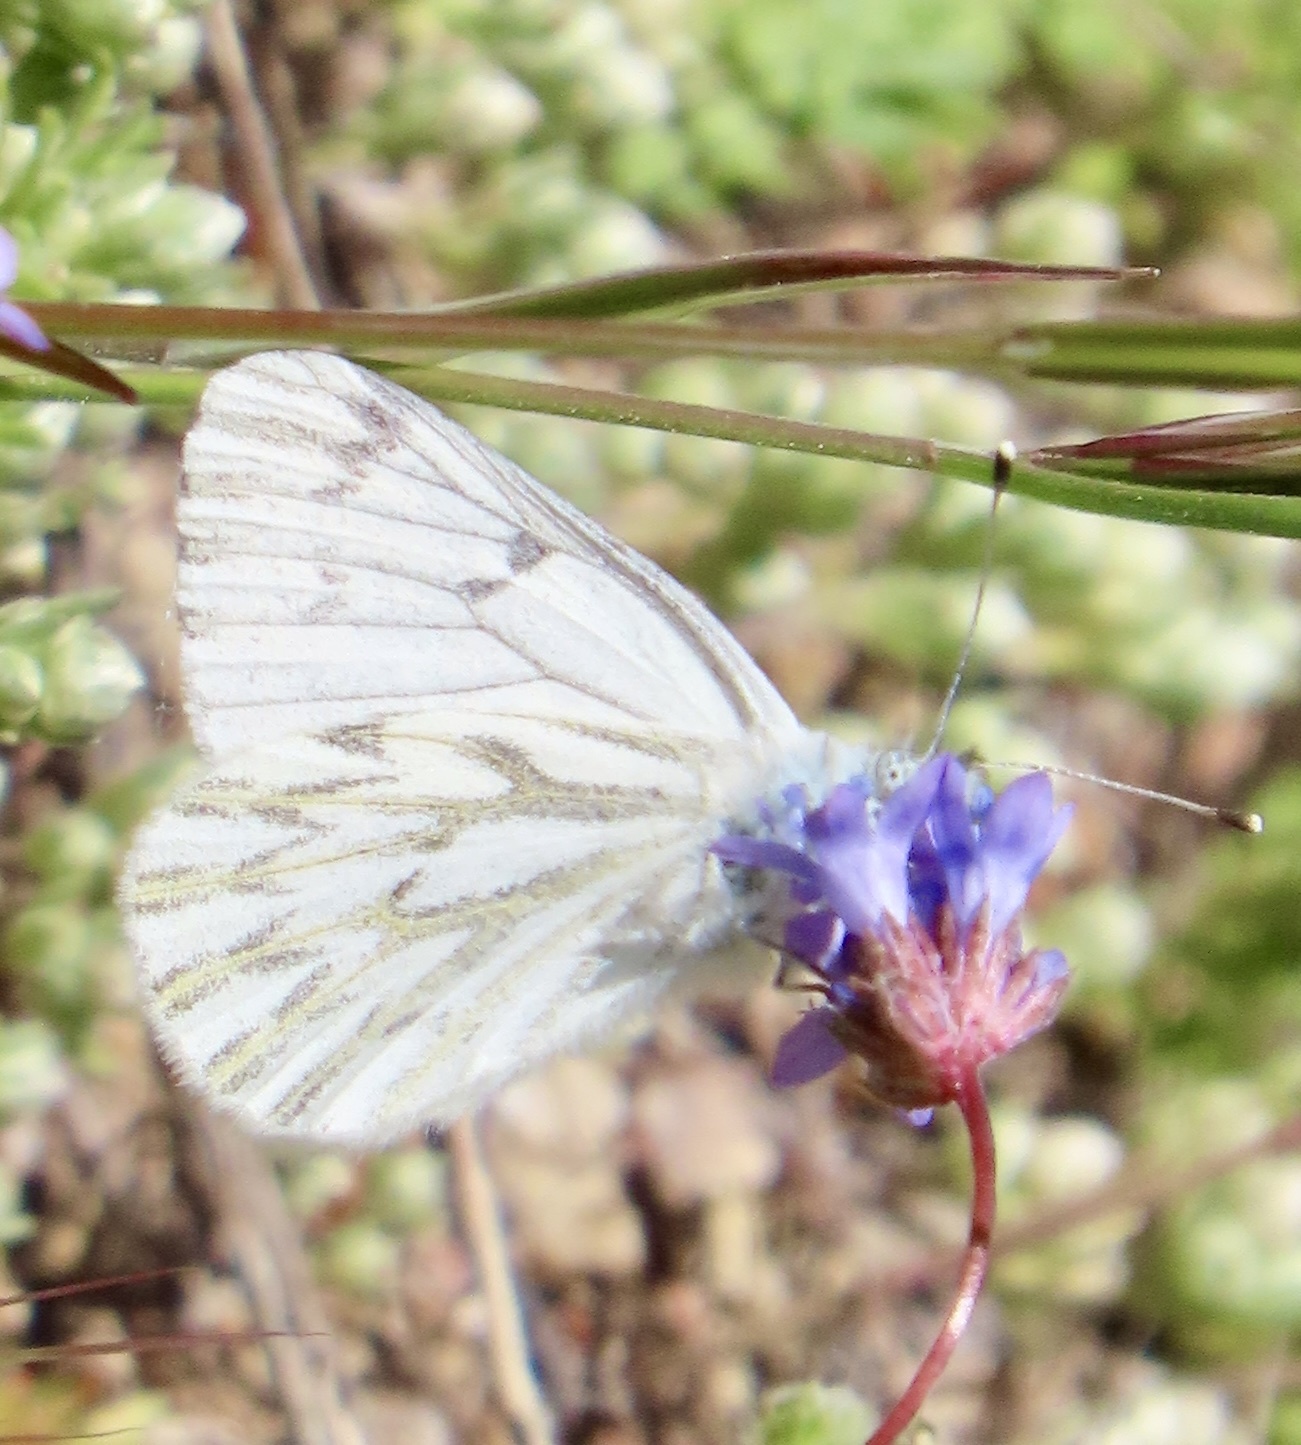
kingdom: Animalia
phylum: Arthropoda
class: Insecta
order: Lepidoptera
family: Pieridae
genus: Pontia
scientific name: Pontia sisymbrii
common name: California white
